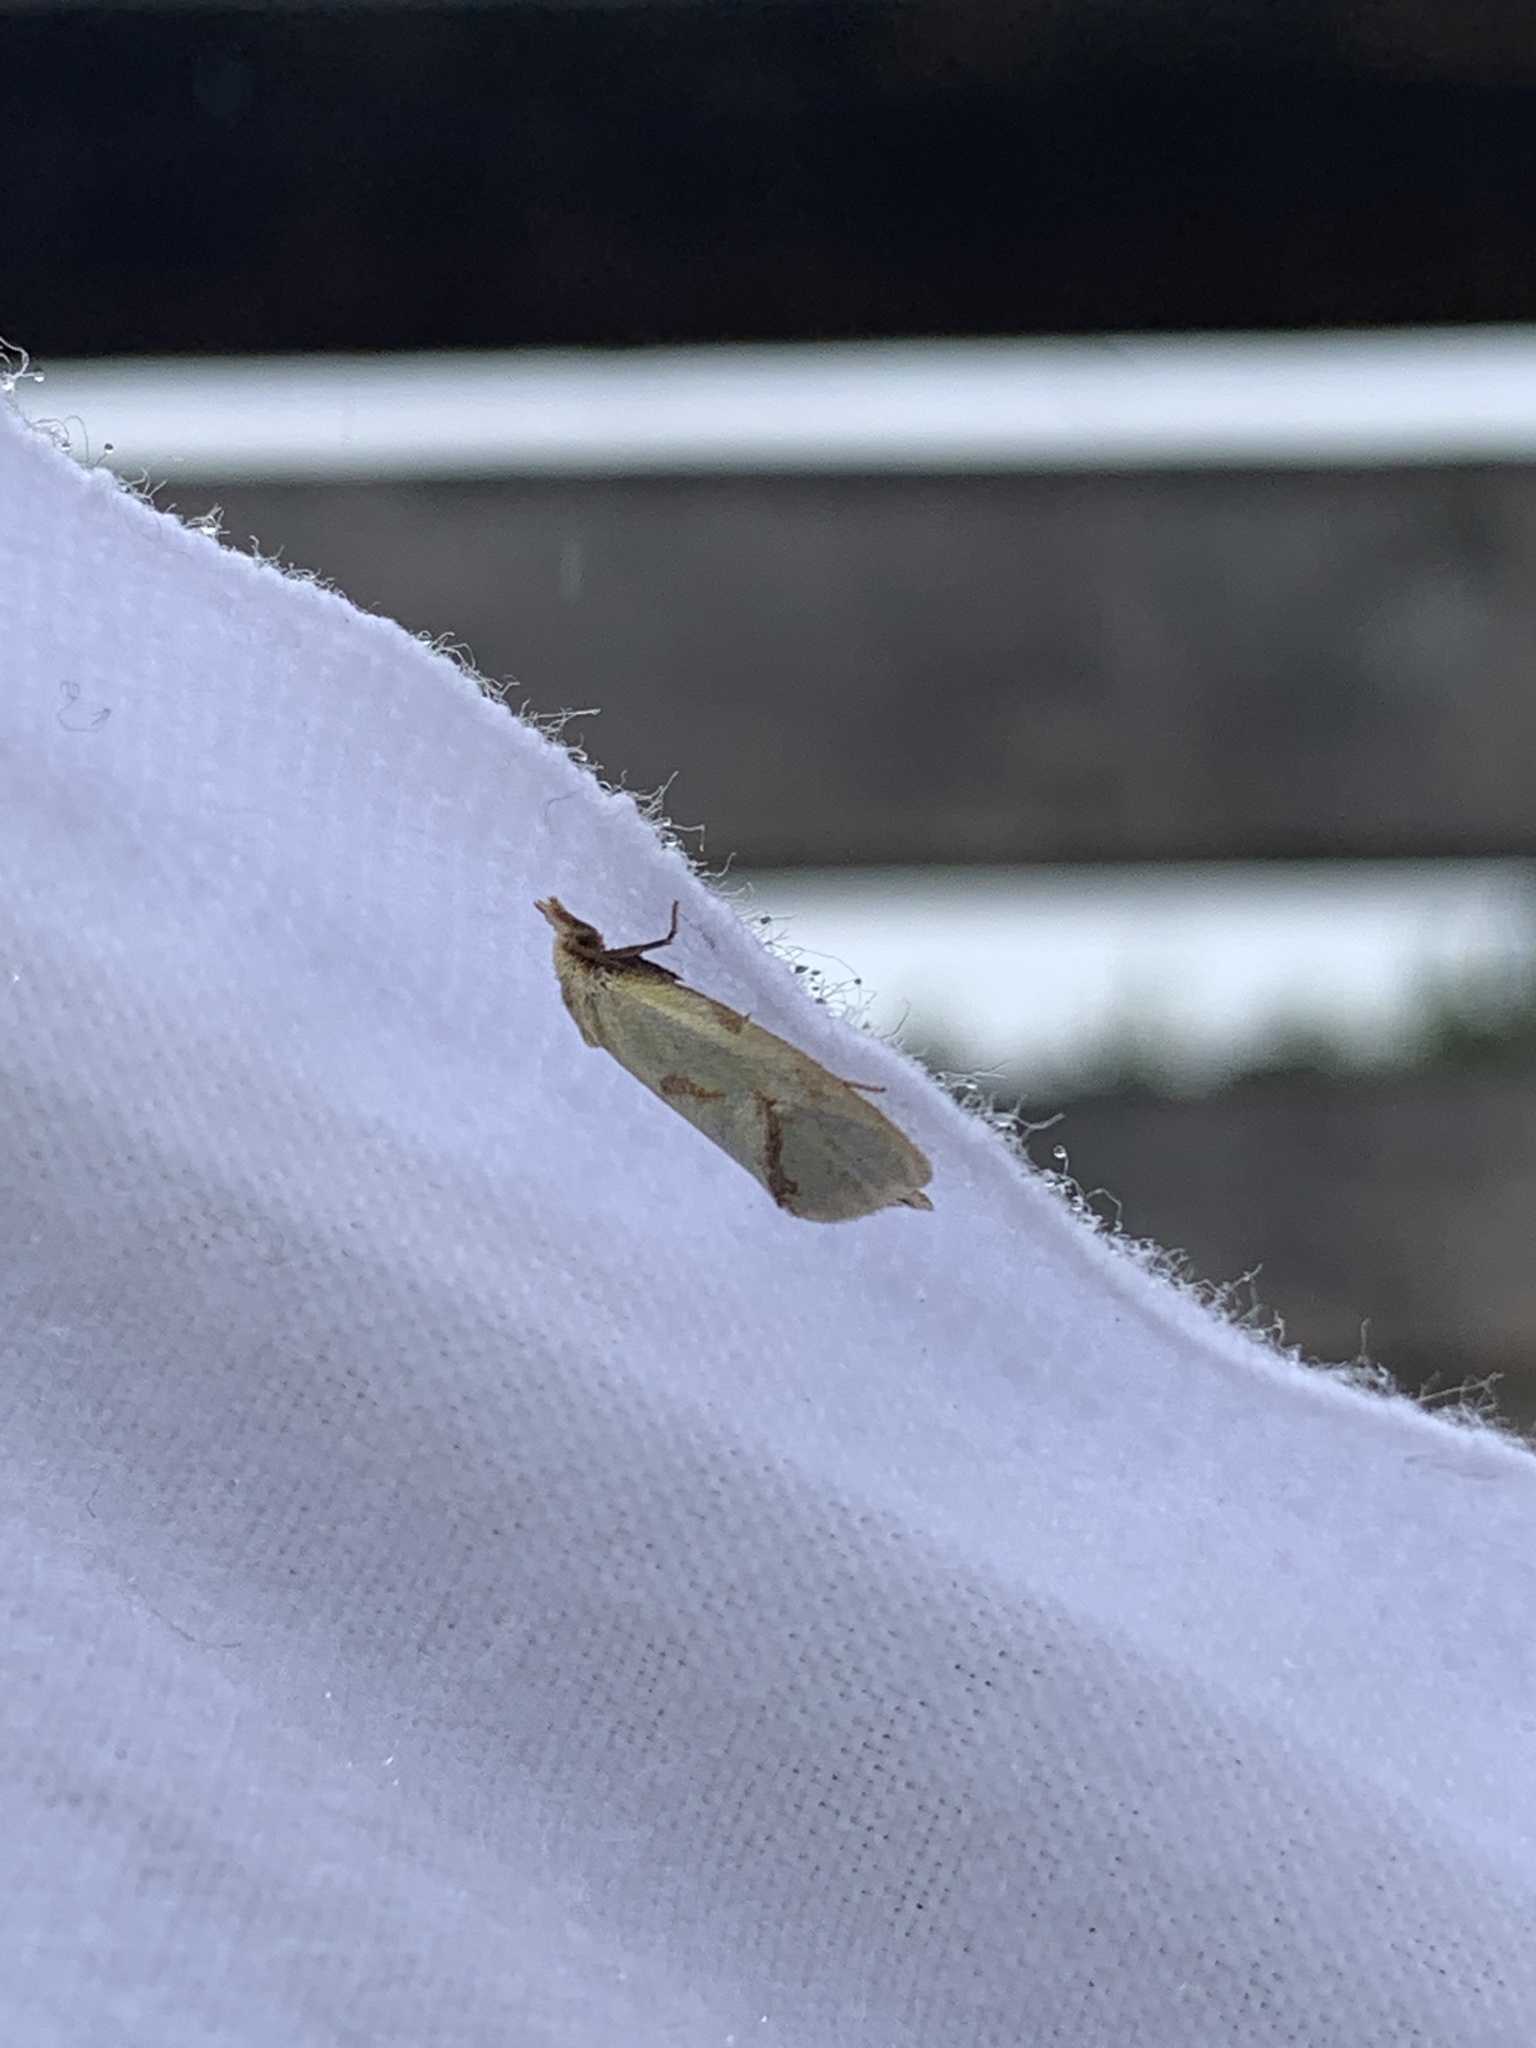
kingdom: Animalia
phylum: Arthropoda
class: Insecta
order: Lepidoptera
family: Tortricidae
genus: Agapeta
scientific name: Agapeta hamana
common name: Common yellow conch
